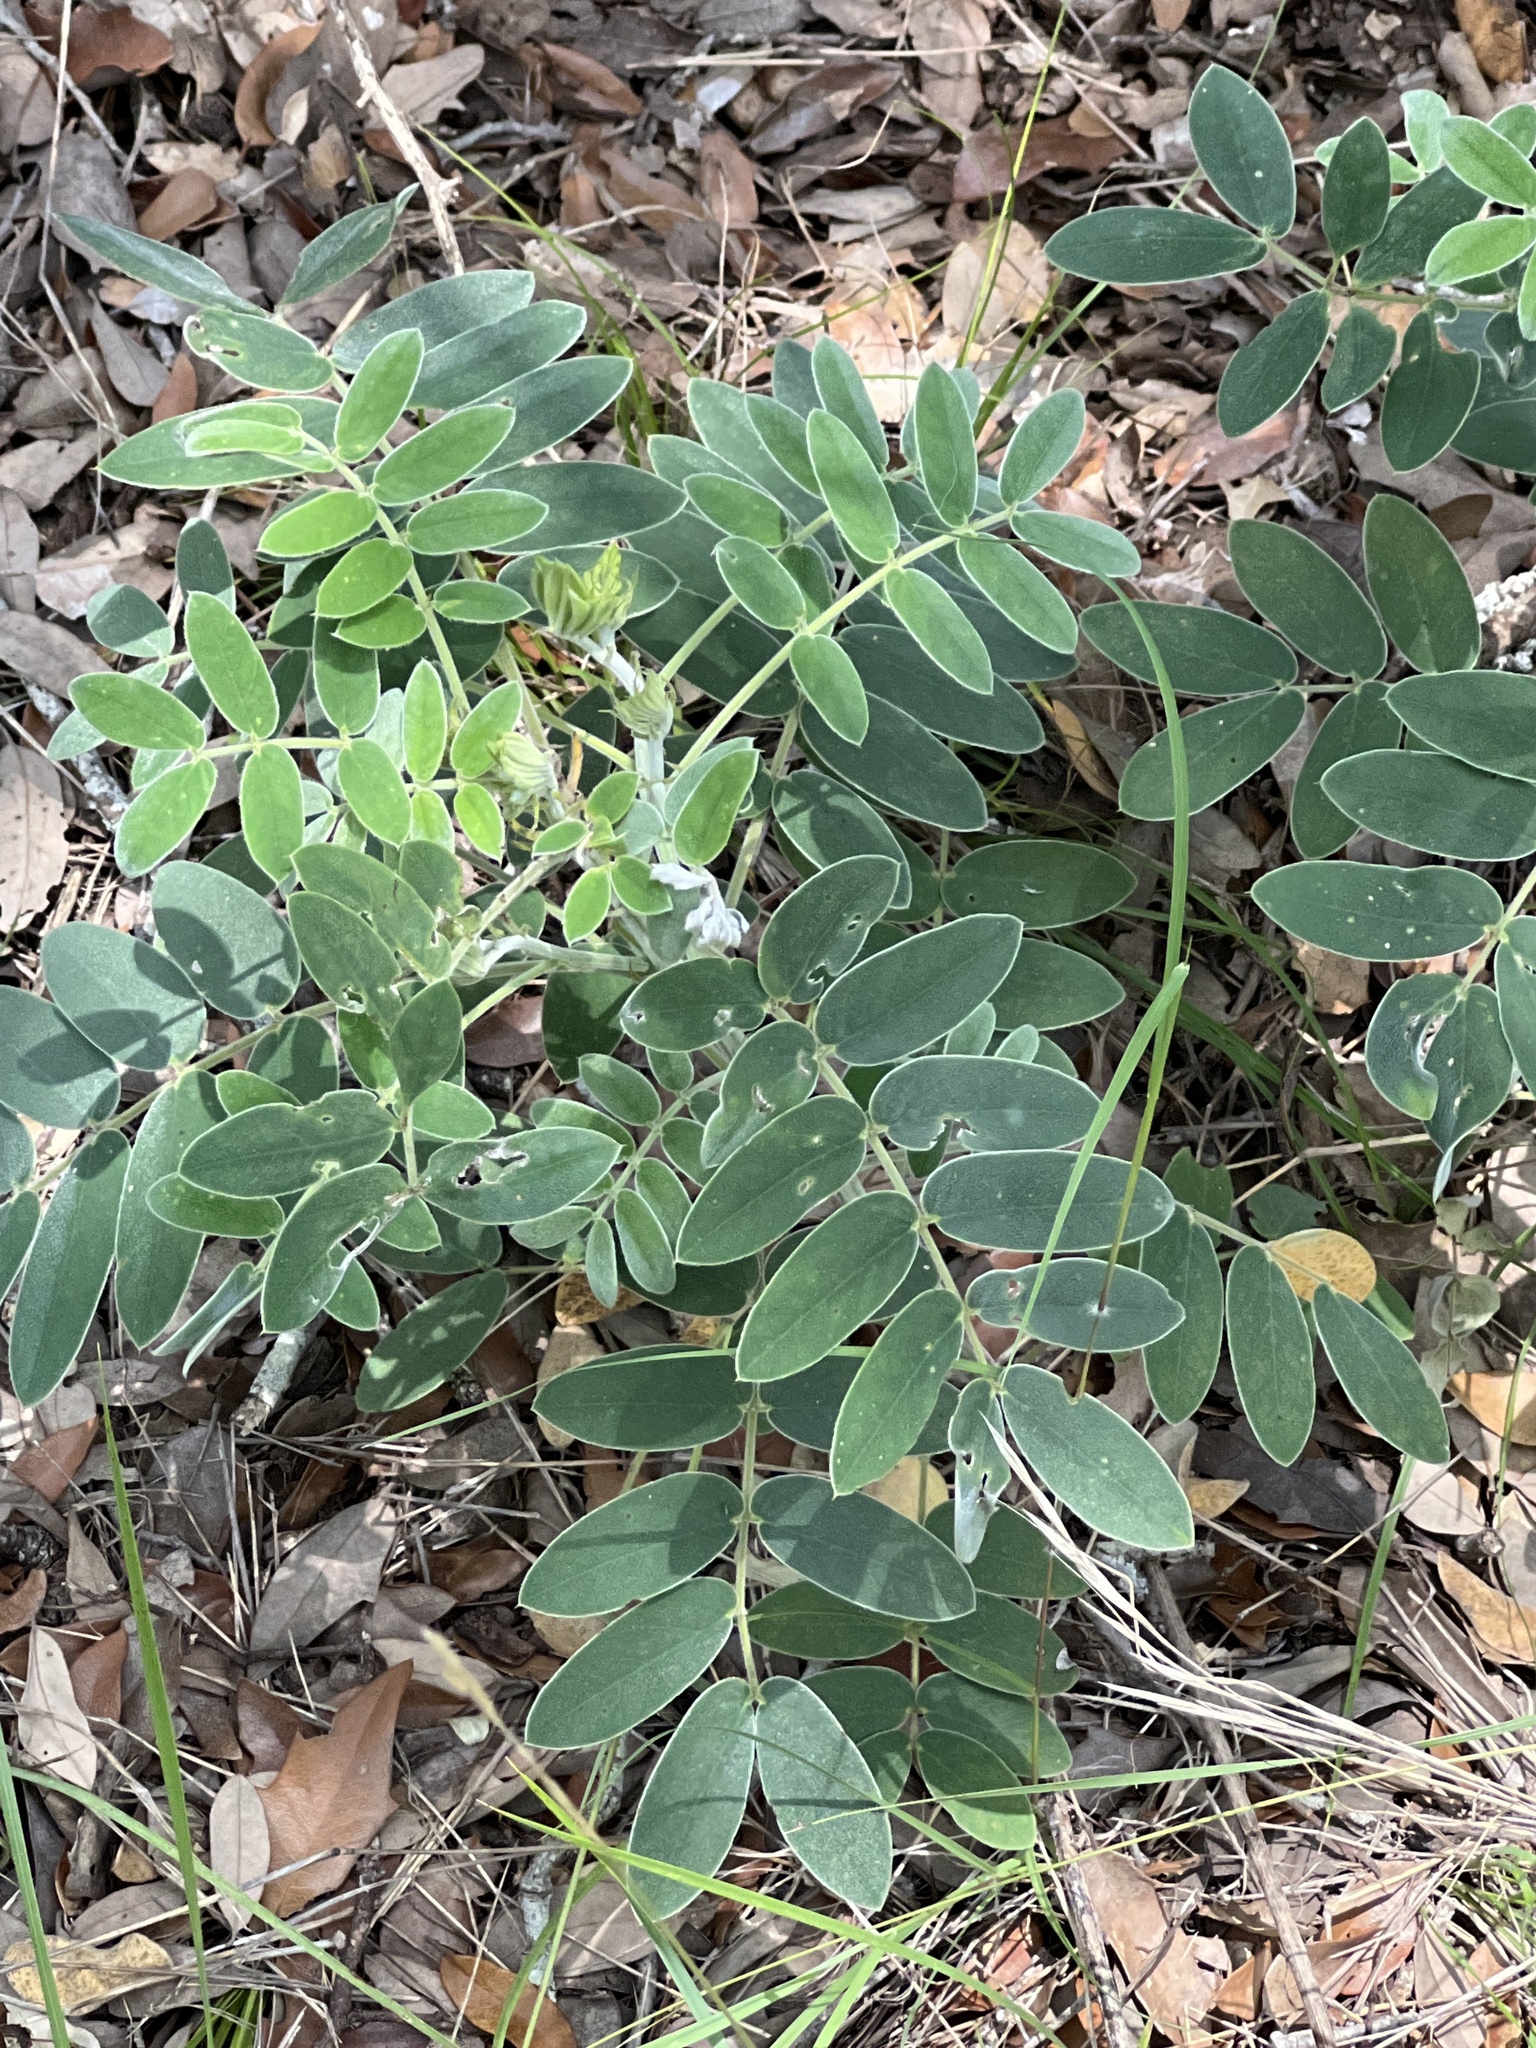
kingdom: Plantae
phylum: Tracheophyta
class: Magnoliopsida
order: Fabales
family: Fabaceae
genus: Senna
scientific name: Senna lindheimeriana
